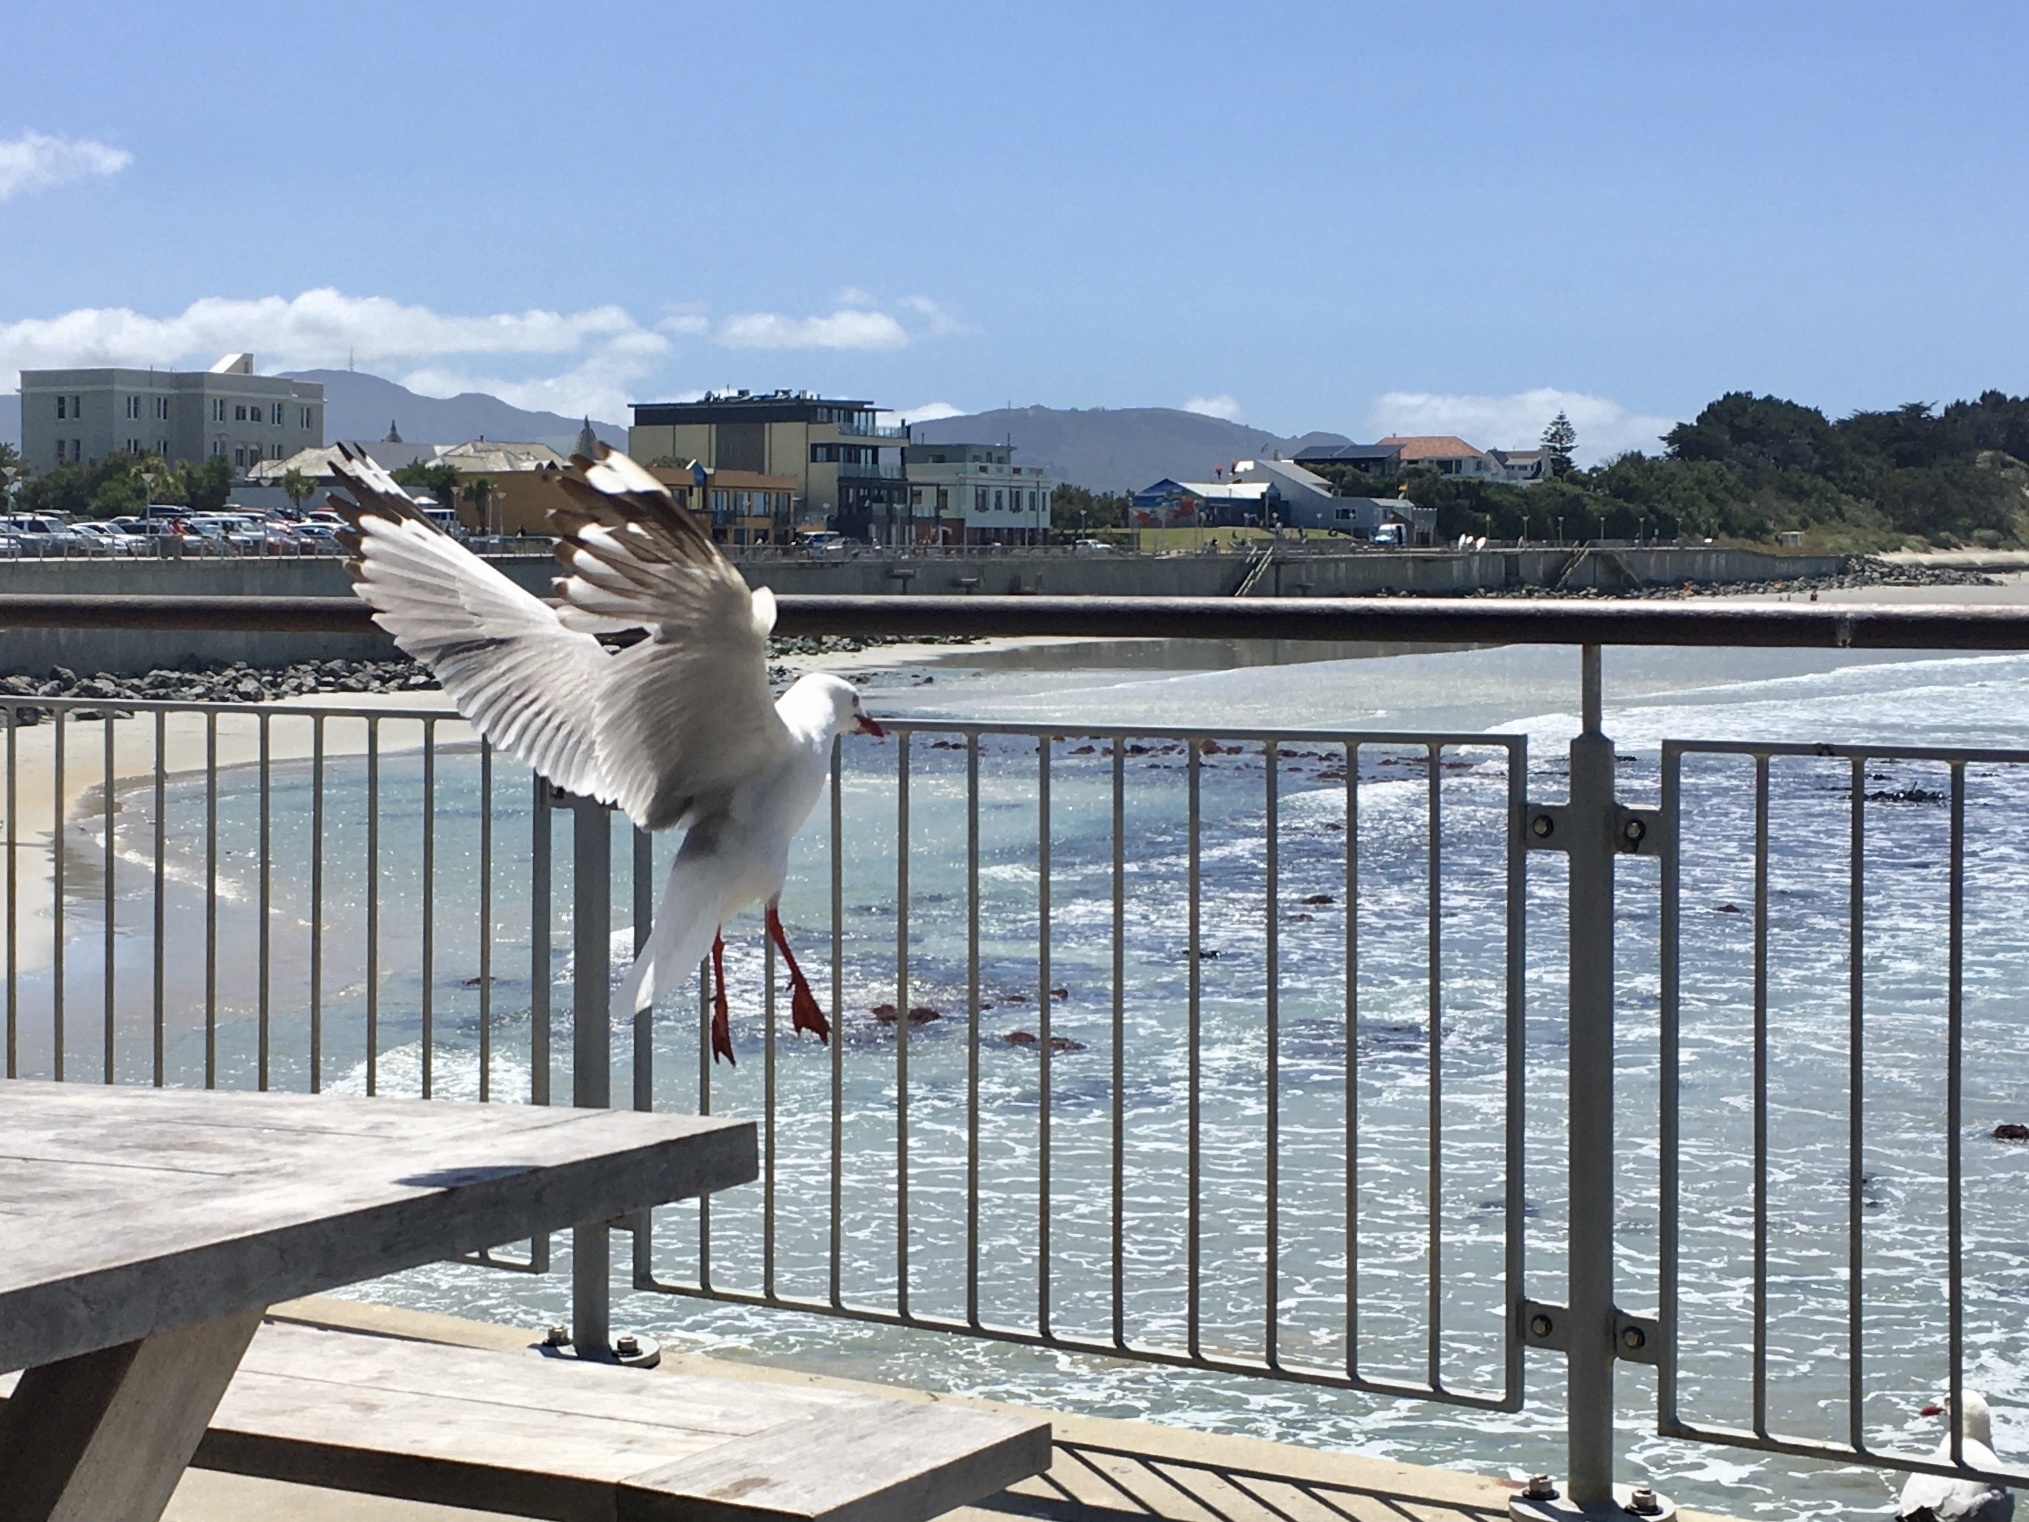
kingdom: Animalia
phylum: Chordata
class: Aves
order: Charadriiformes
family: Laridae
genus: Chroicocephalus
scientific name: Chroicocephalus novaehollandiae
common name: Silver gull
